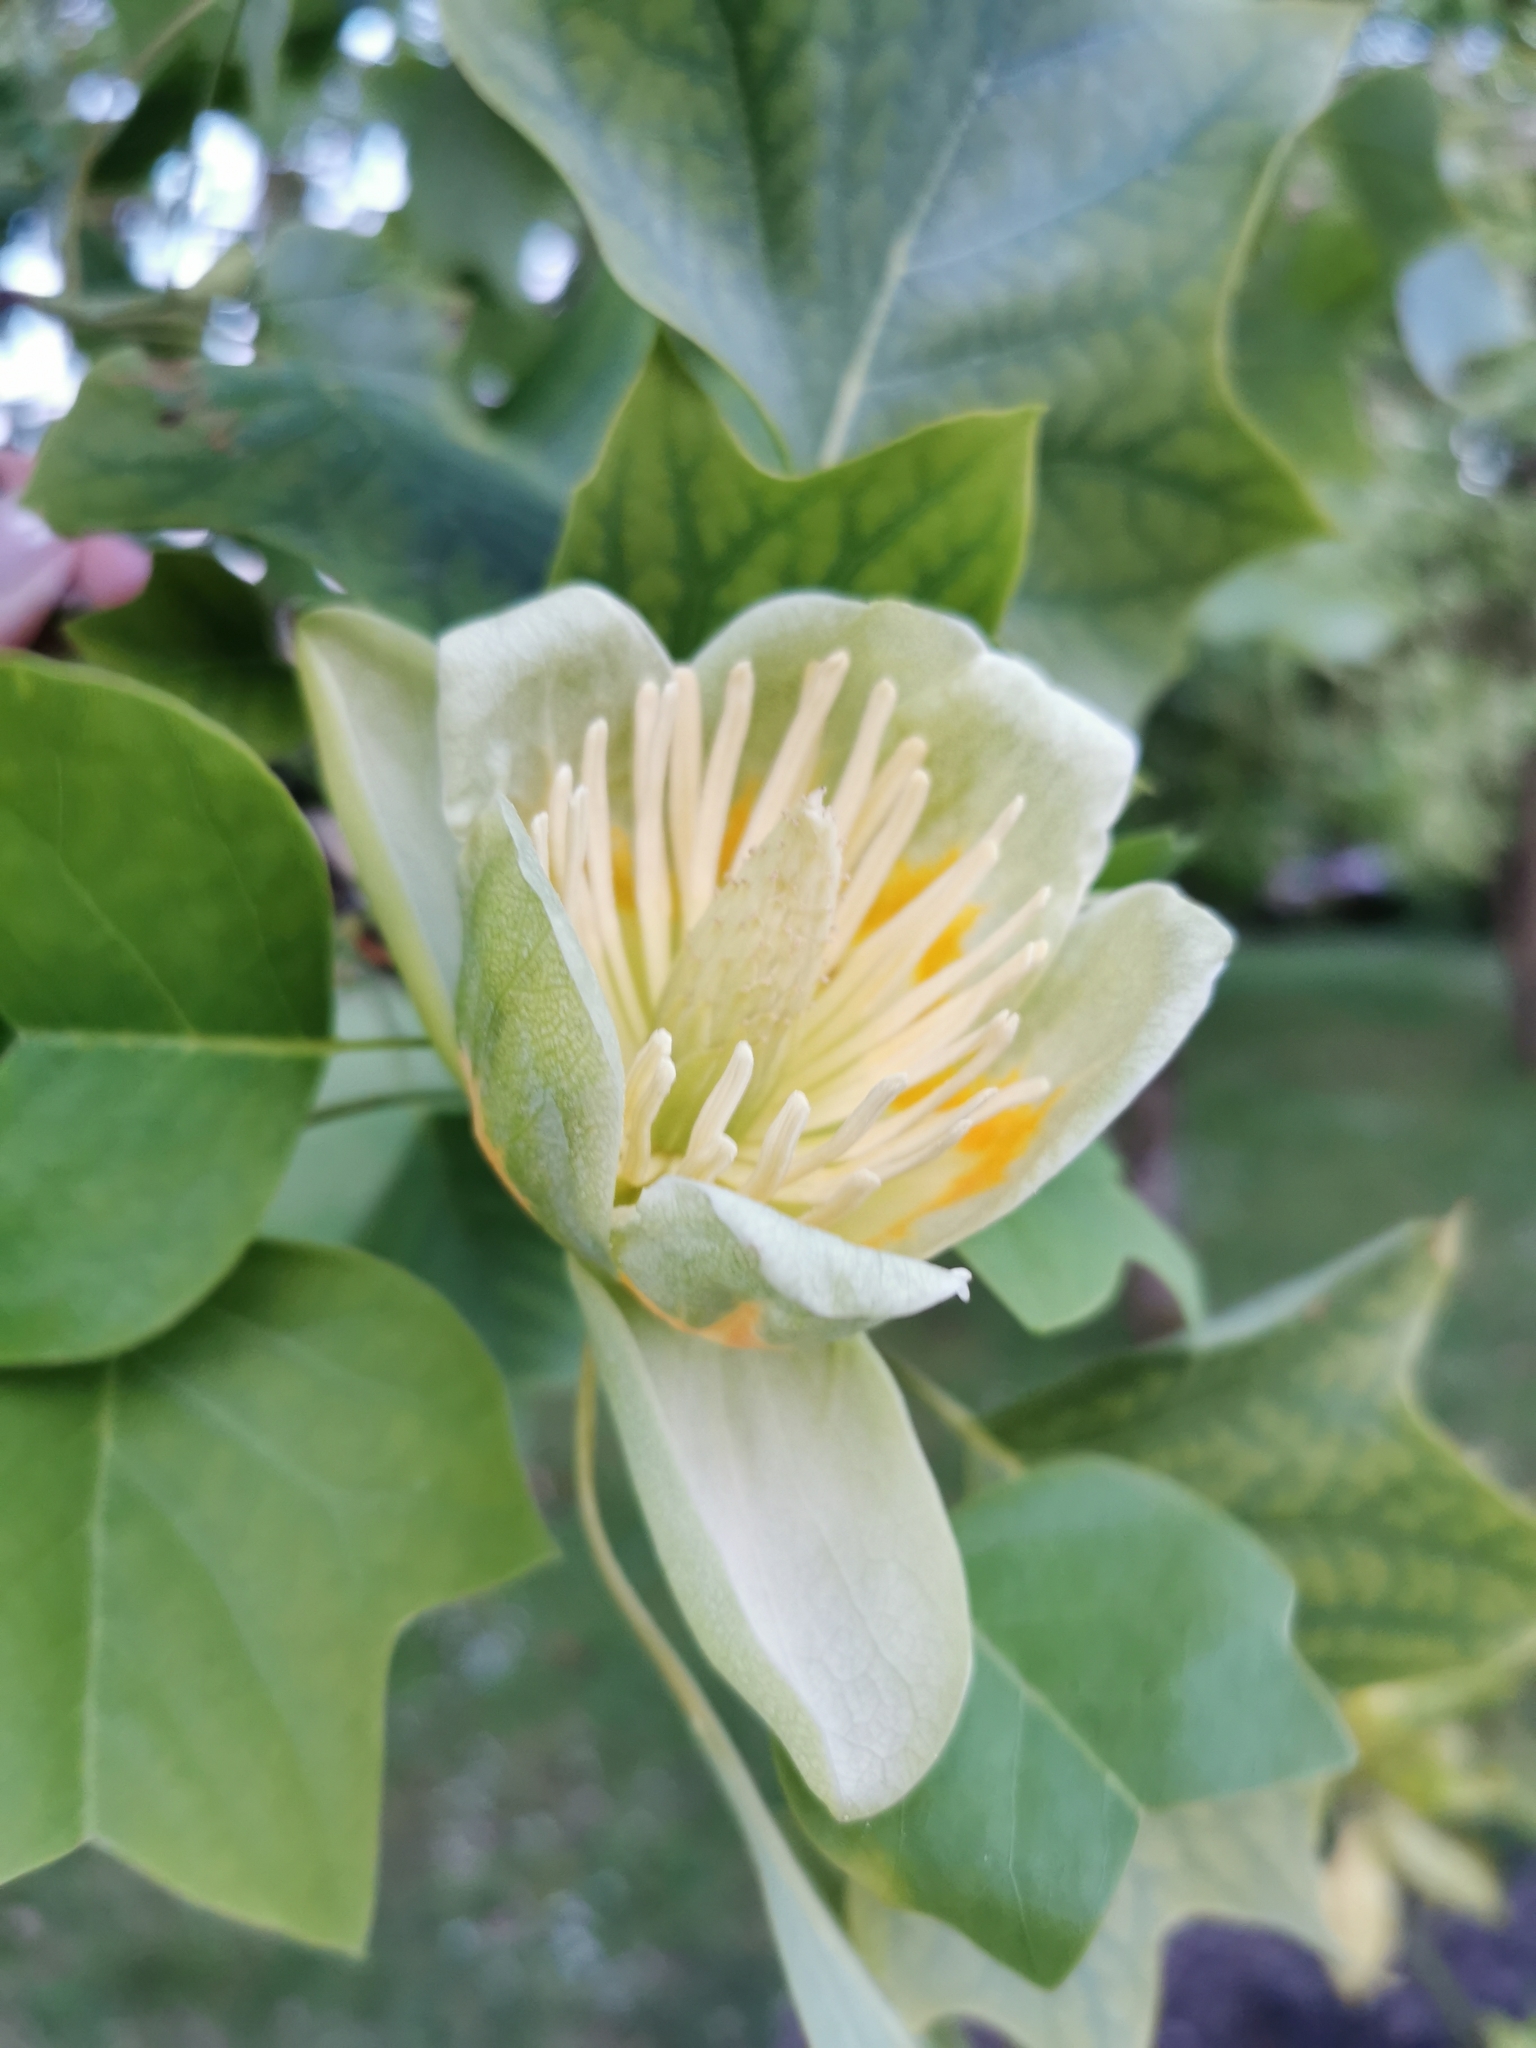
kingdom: Plantae
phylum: Tracheophyta
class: Magnoliopsida
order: Magnoliales
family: Magnoliaceae
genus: Liriodendron
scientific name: Liriodendron tulipifera
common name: Tulip tree
